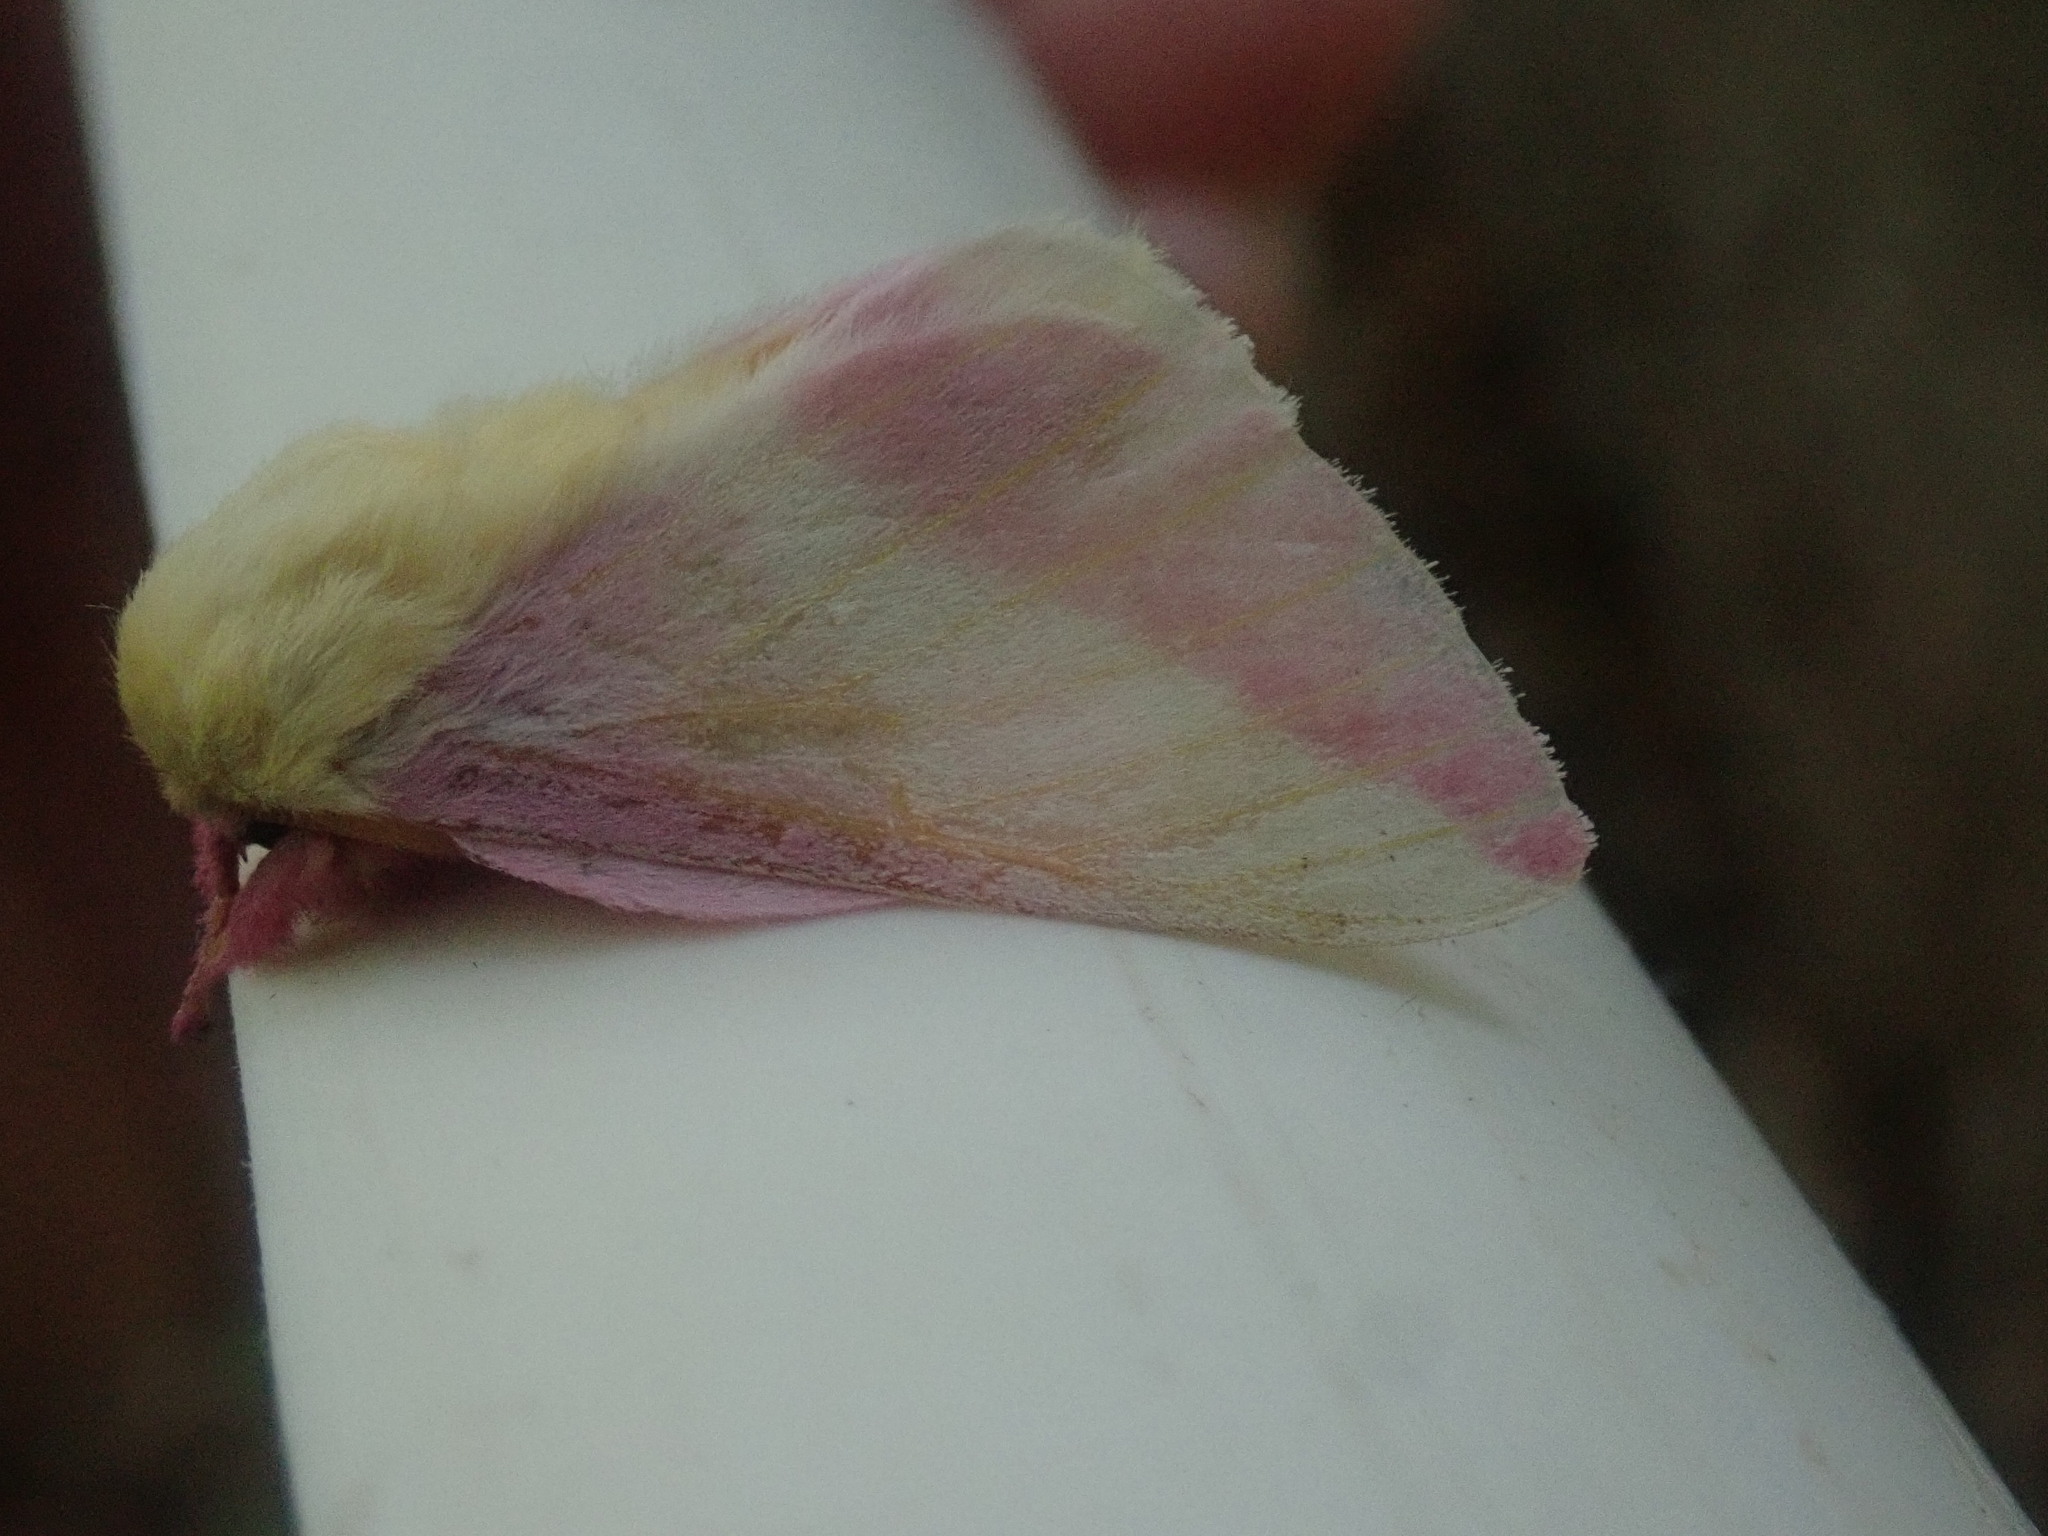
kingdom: Animalia
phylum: Arthropoda
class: Insecta
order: Lepidoptera
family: Saturniidae
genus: Dryocampa
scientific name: Dryocampa rubicunda
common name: Rosy maple moth
